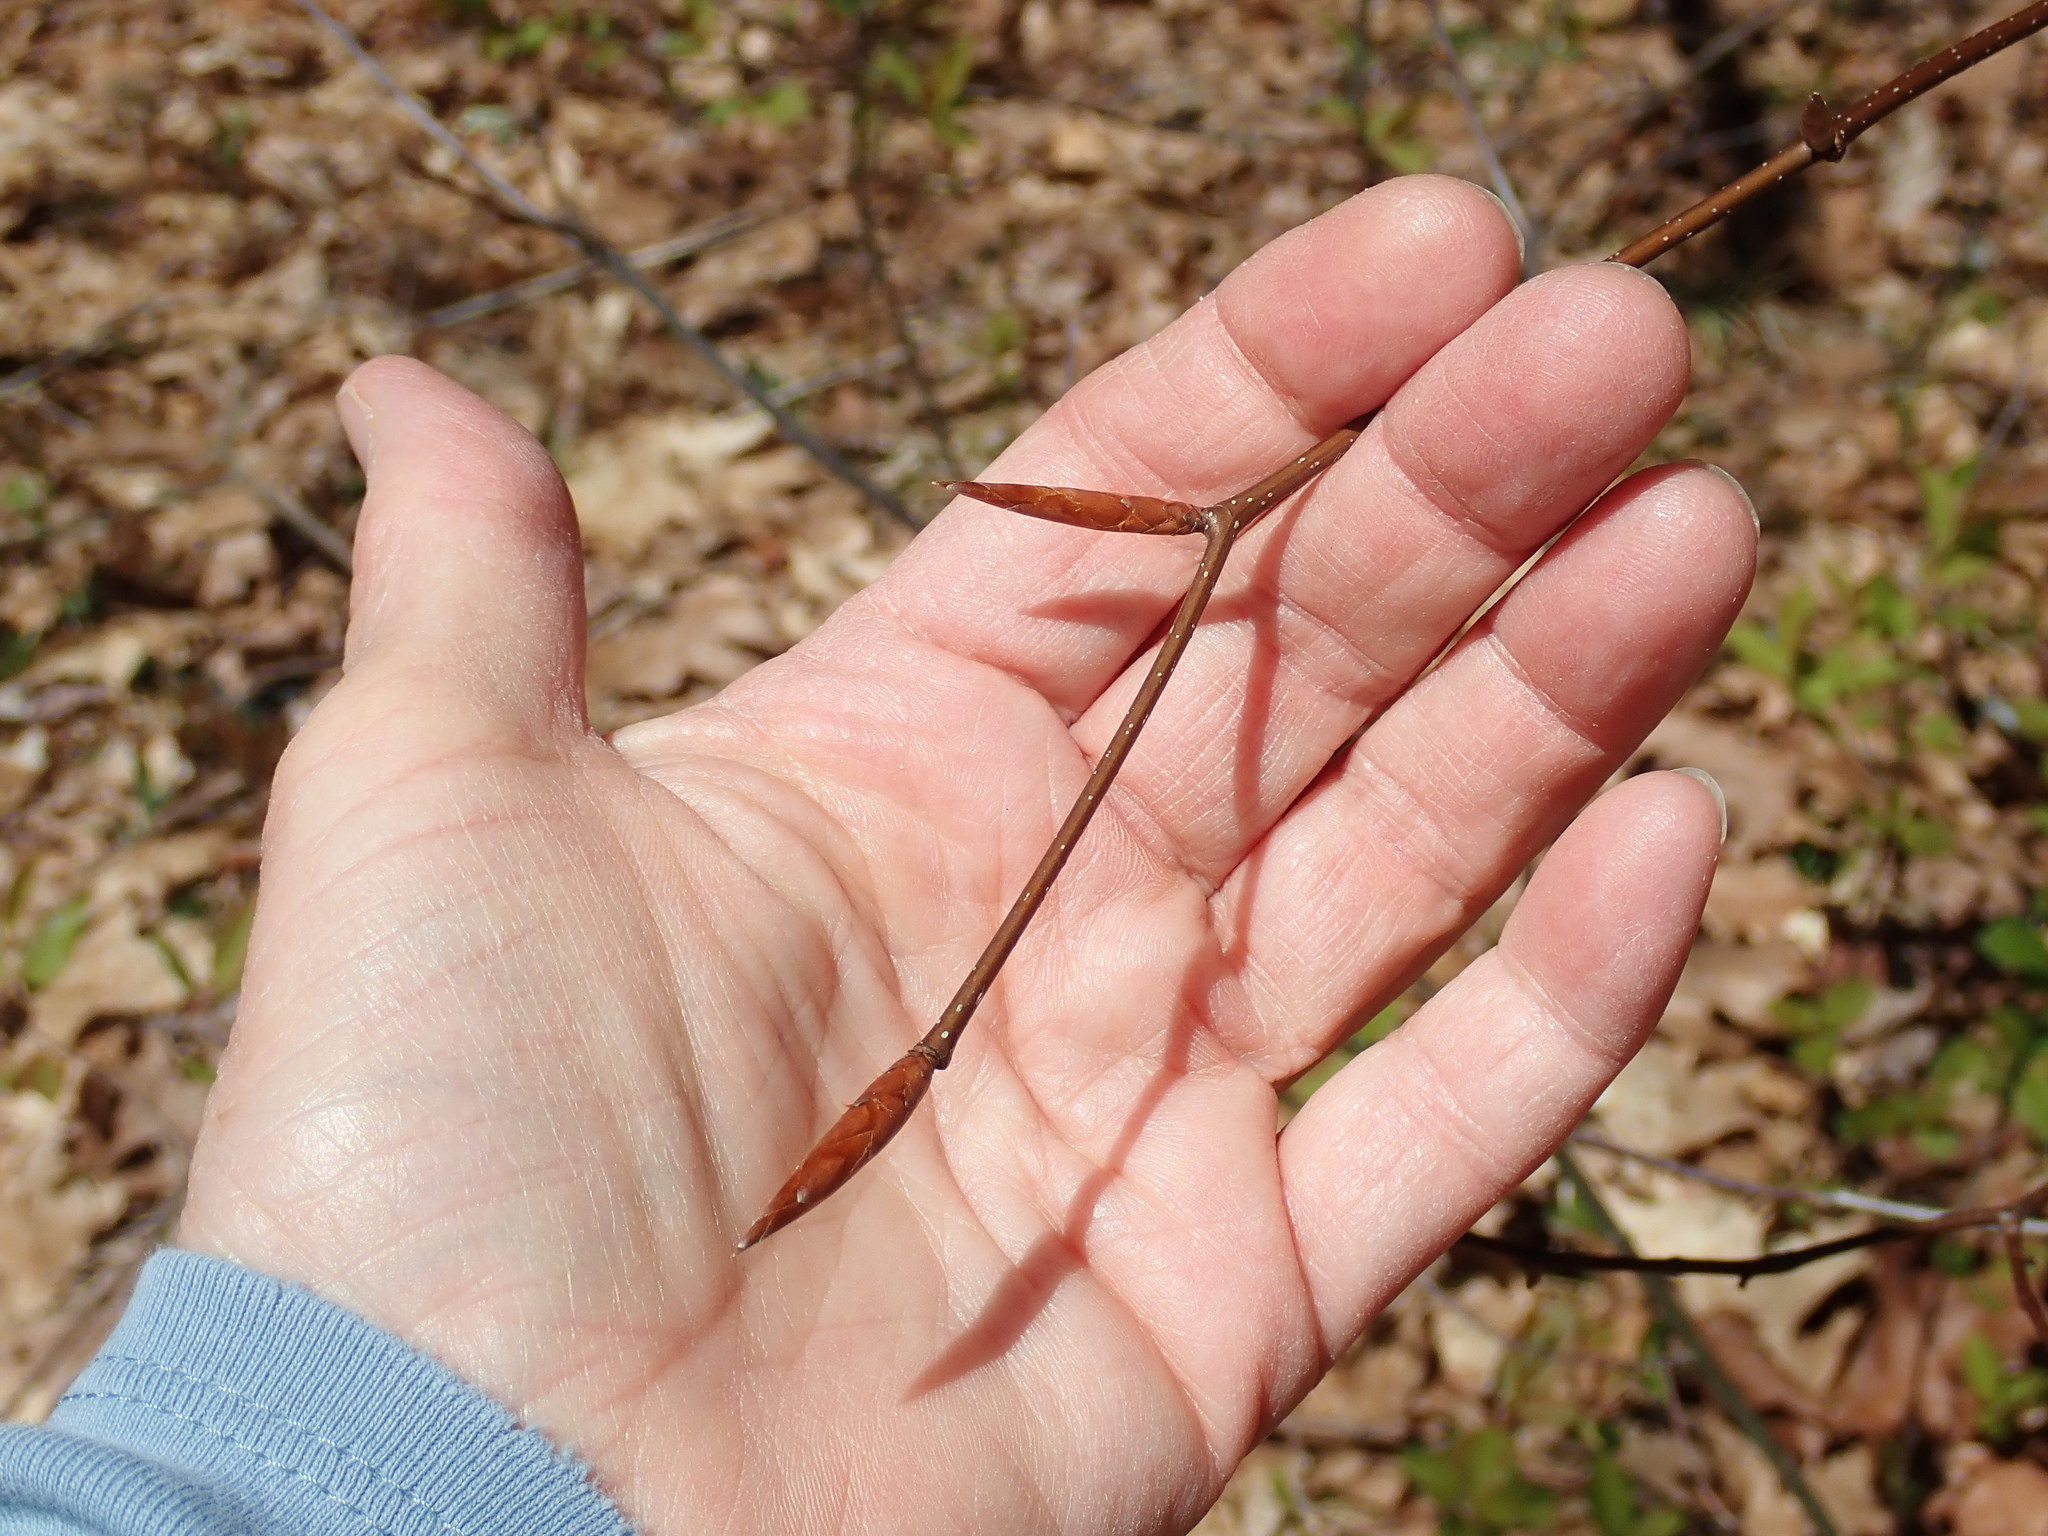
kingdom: Plantae
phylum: Tracheophyta
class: Magnoliopsida
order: Fagales
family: Fagaceae
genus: Fagus
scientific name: Fagus grandifolia
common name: American beech
